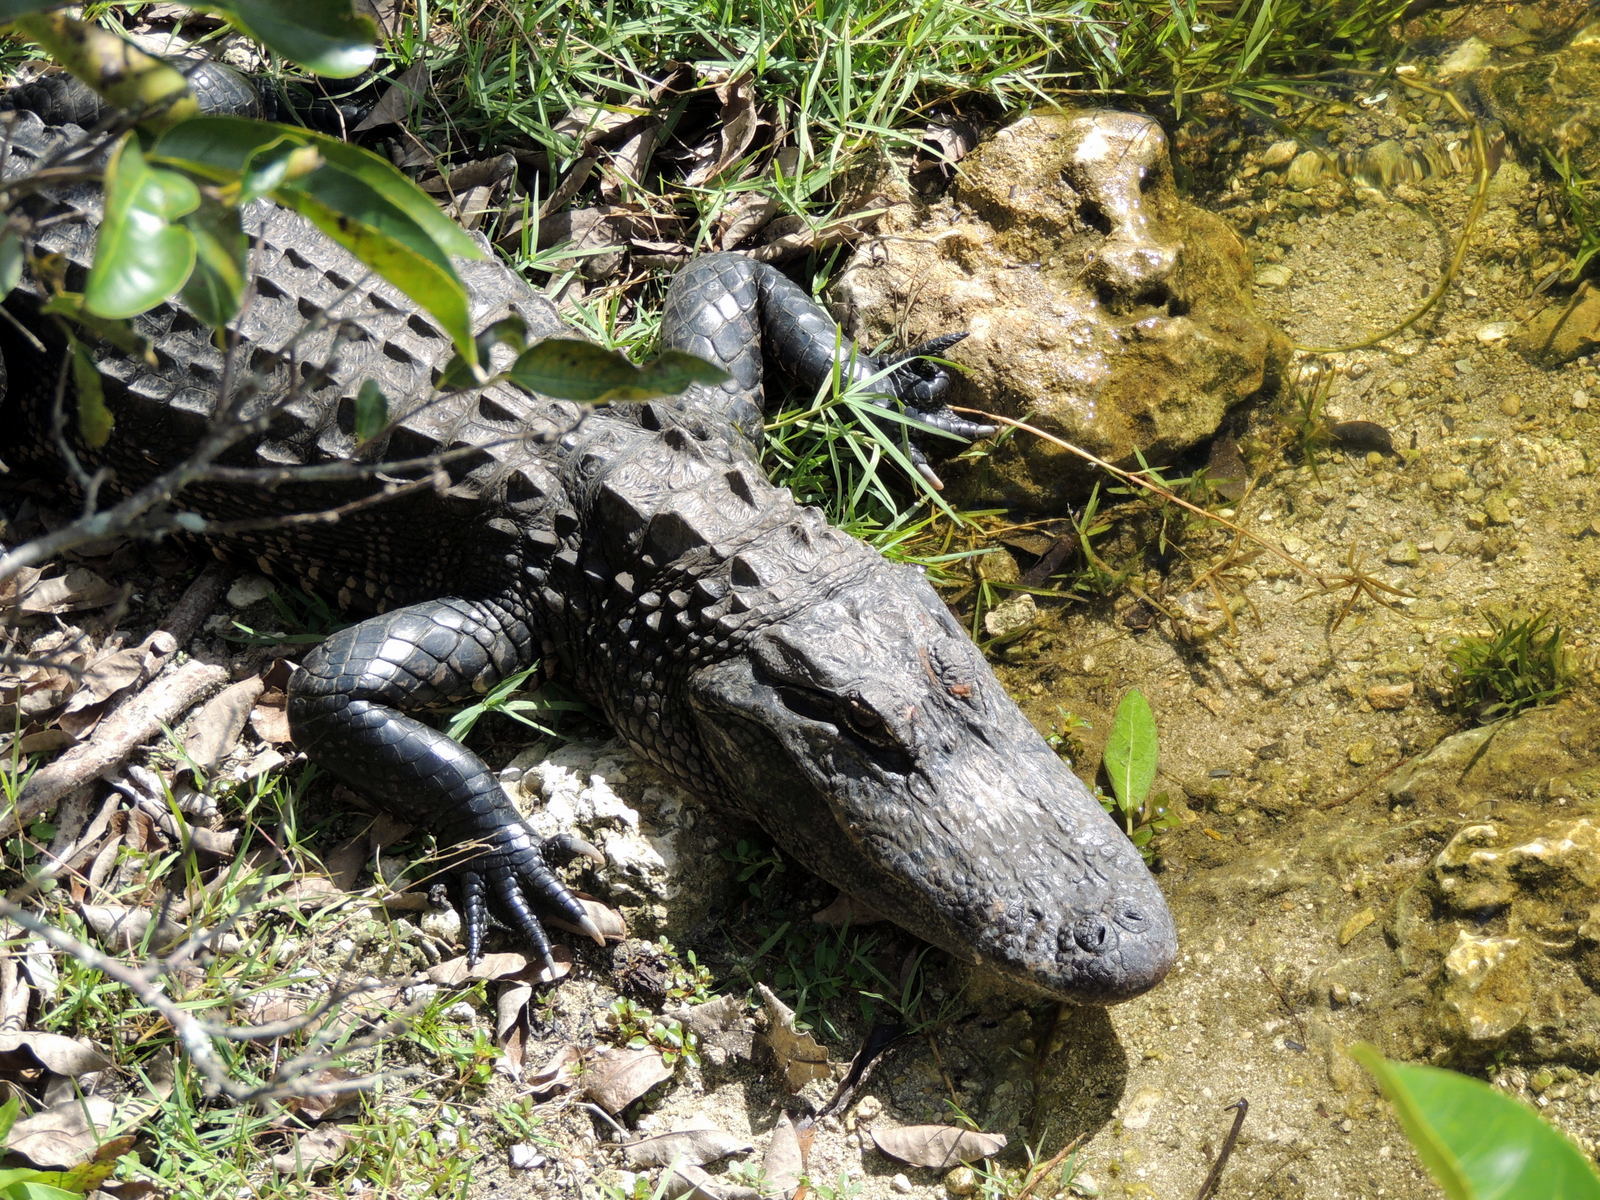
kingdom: Animalia
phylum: Chordata
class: Crocodylia
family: Alligatoridae
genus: Alligator
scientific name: Alligator mississippiensis
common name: American alligator
